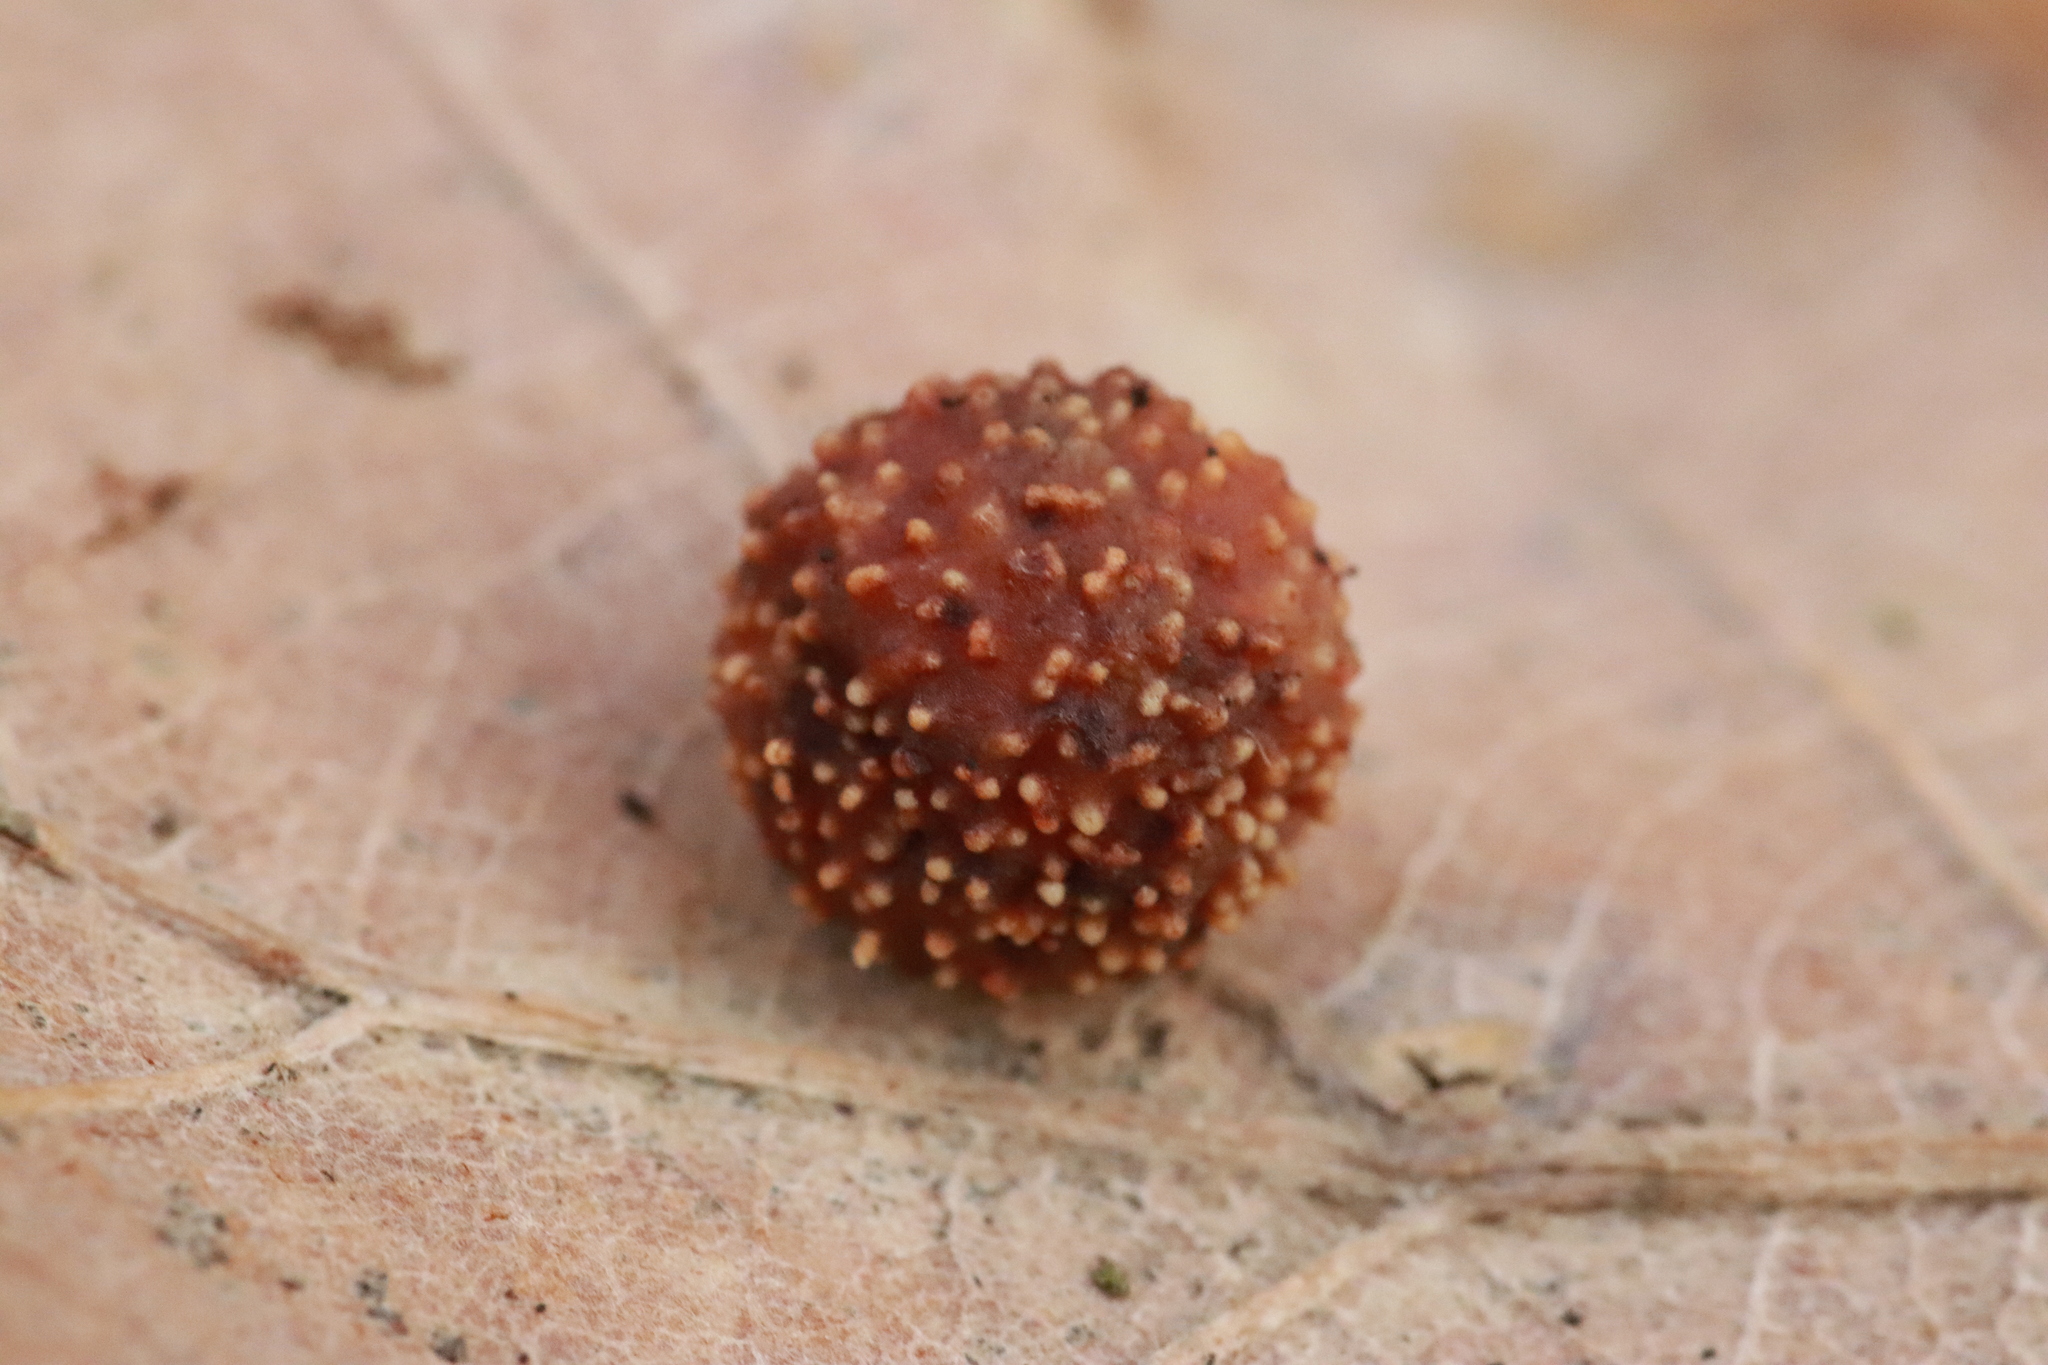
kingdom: Animalia
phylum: Arthropoda
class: Insecta
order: Hymenoptera
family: Cynipidae
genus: Cynips
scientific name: Cynips quercusfolii
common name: Cherry gall
